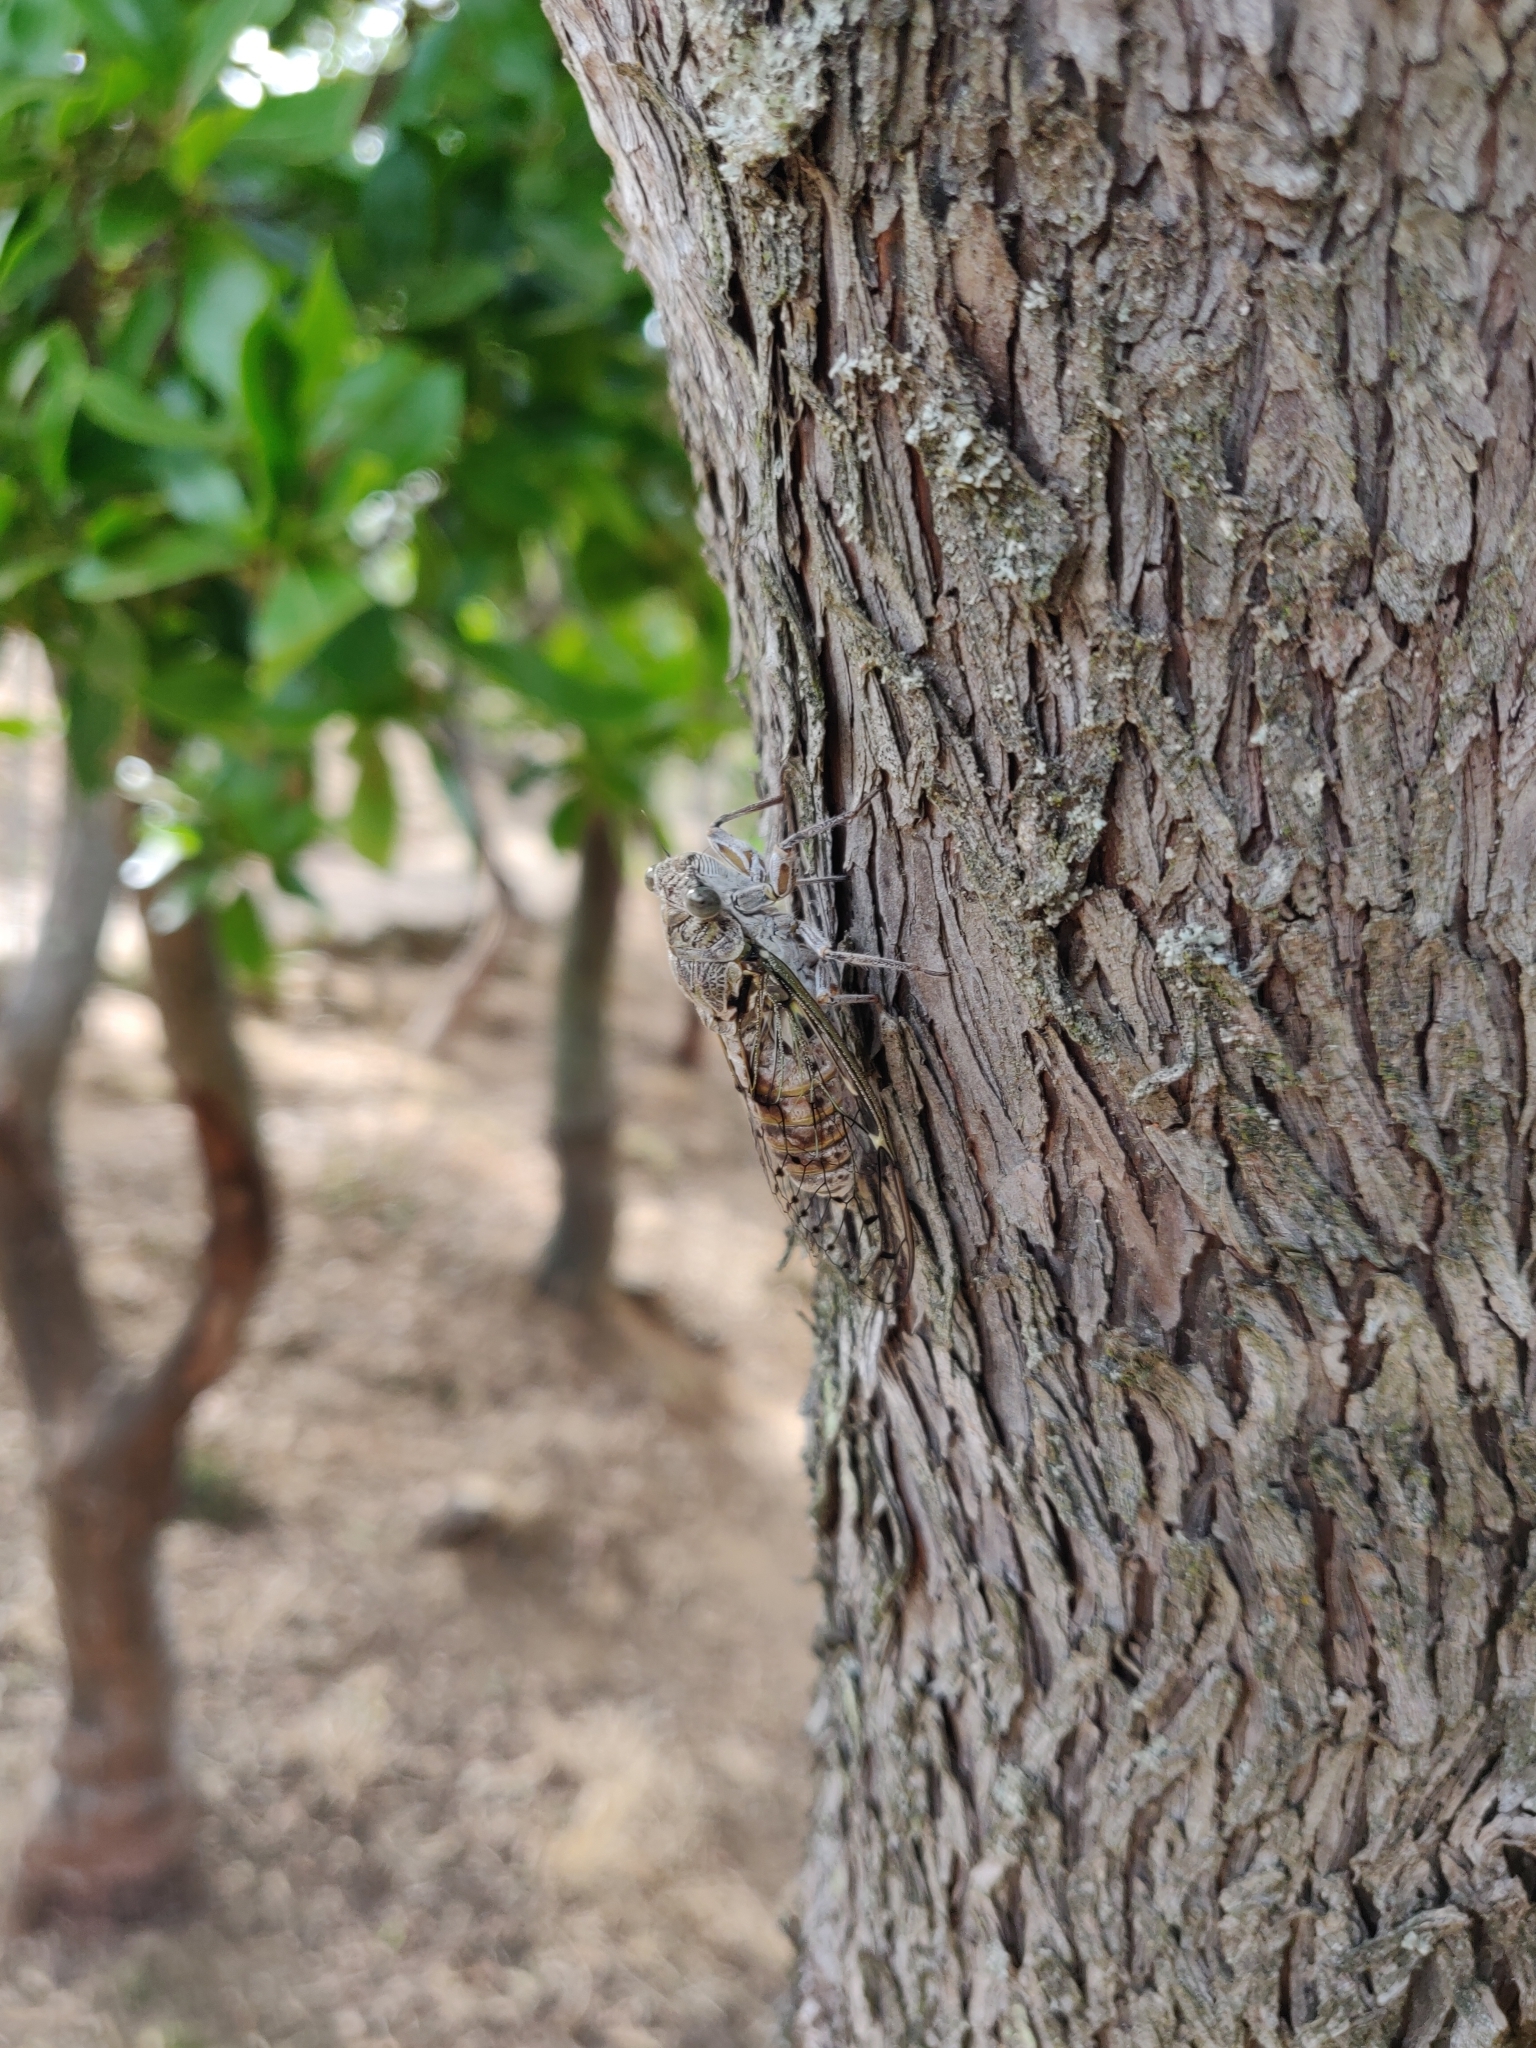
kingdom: Animalia
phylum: Arthropoda
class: Insecta
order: Hemiptera
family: Cicadidae
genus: Cicada
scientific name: Cicada orni
